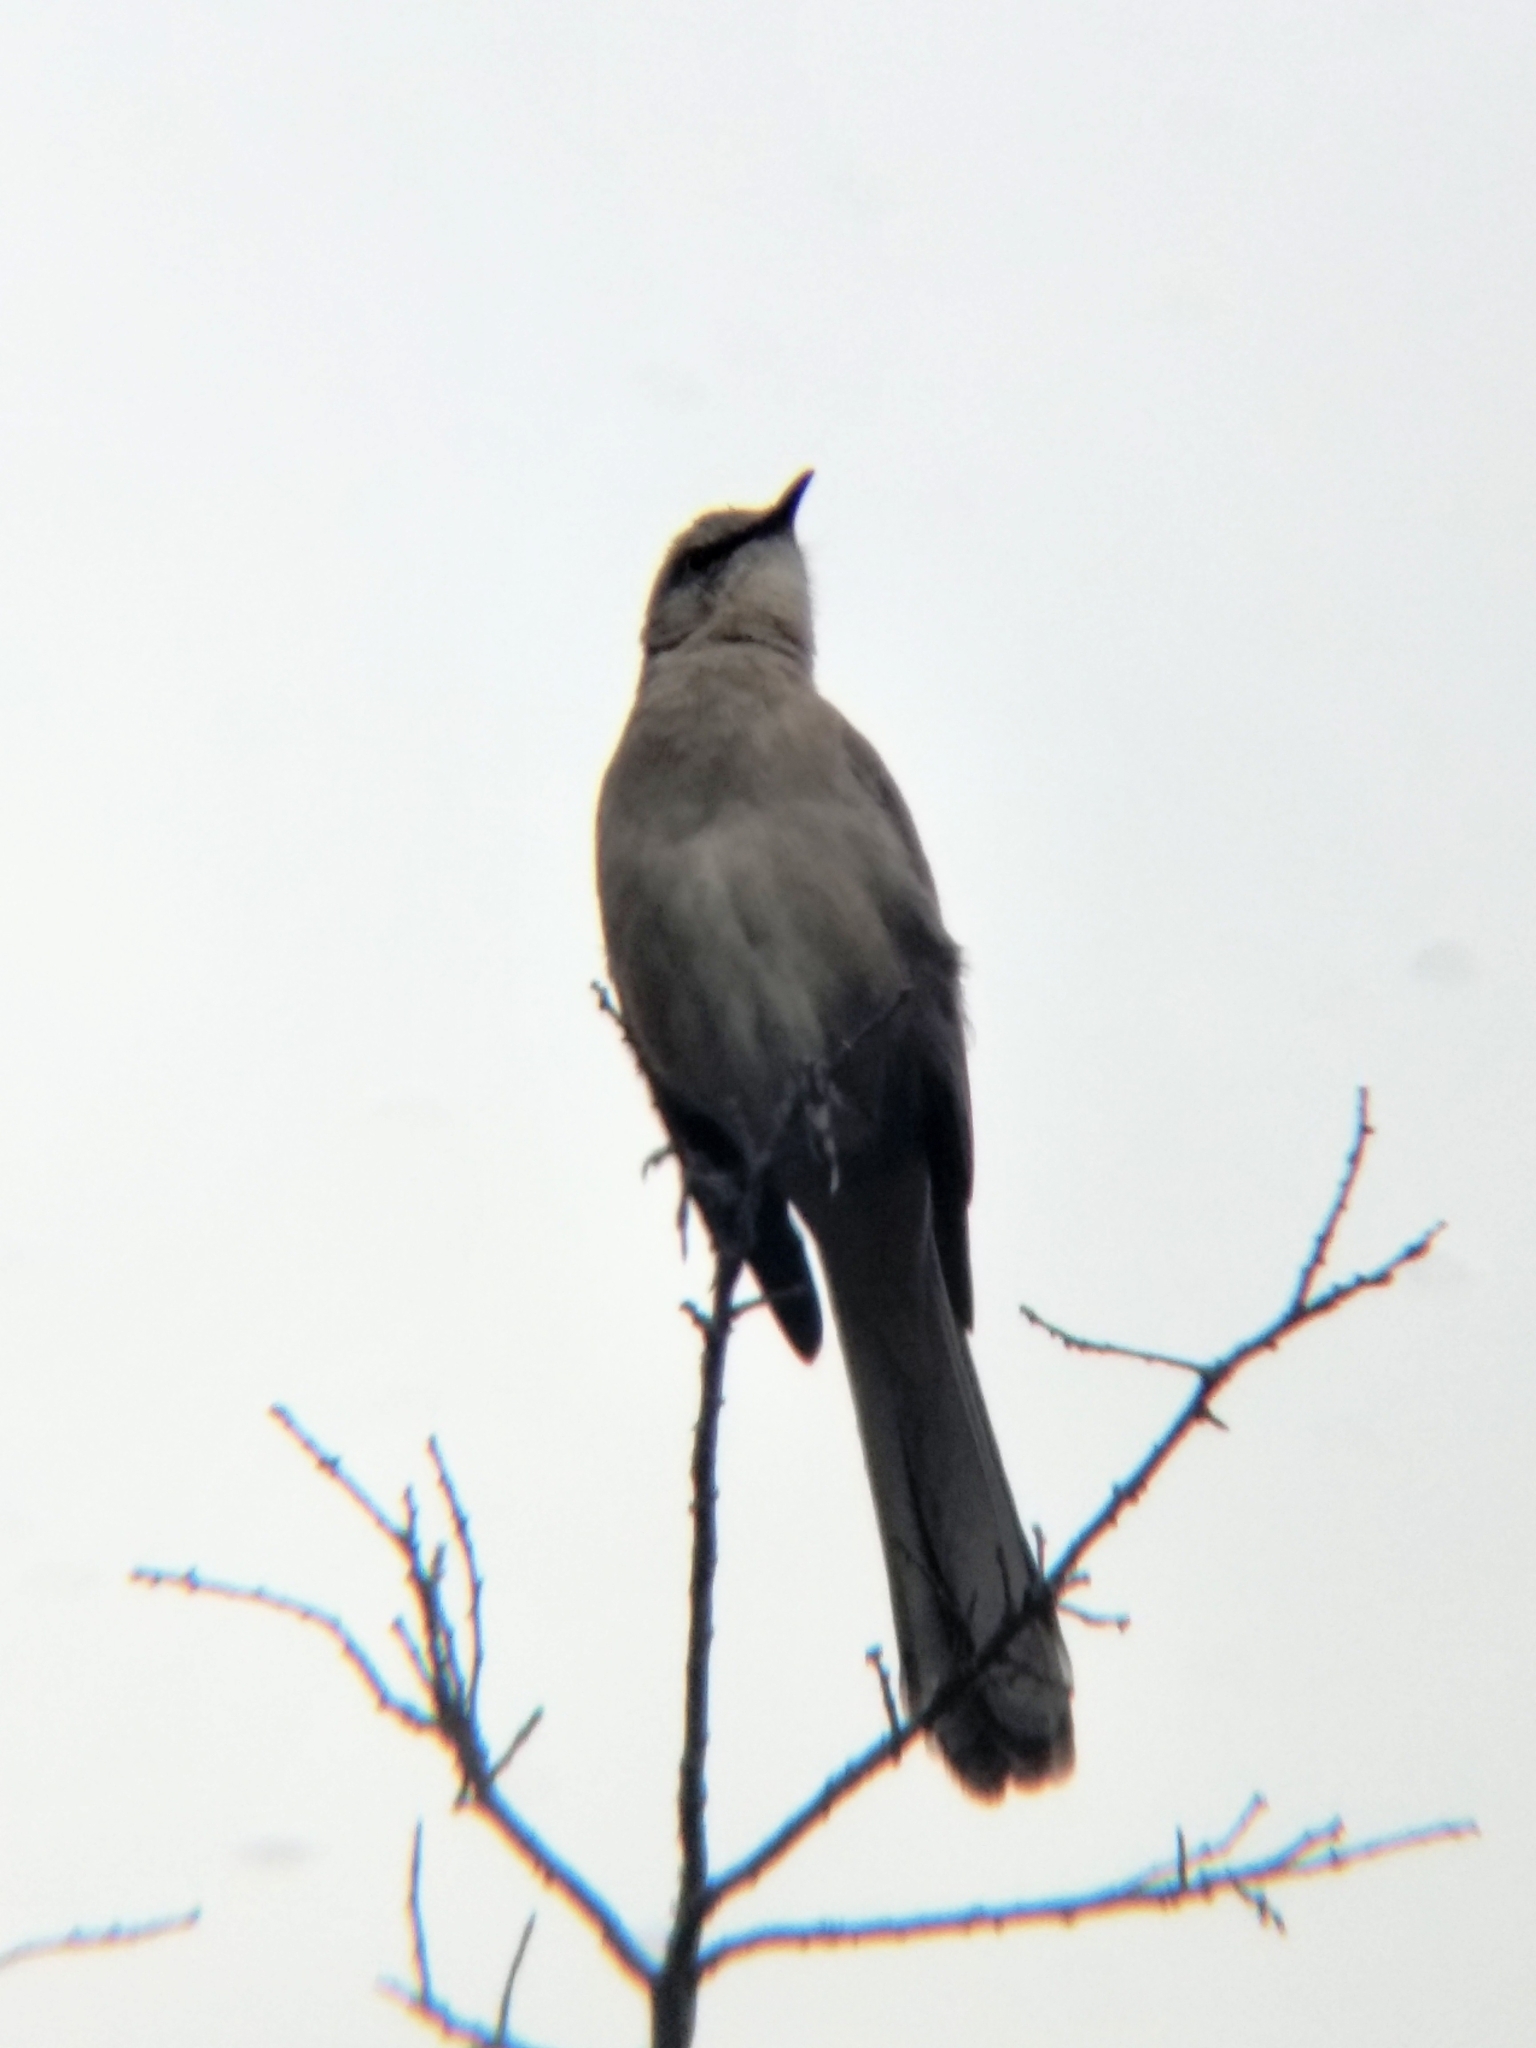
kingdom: Animalia
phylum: Chordata
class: Aves
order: Passeriformes
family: Mimidae
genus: Mimus
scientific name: Mimus polyglottos
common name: Northern mockingbird
